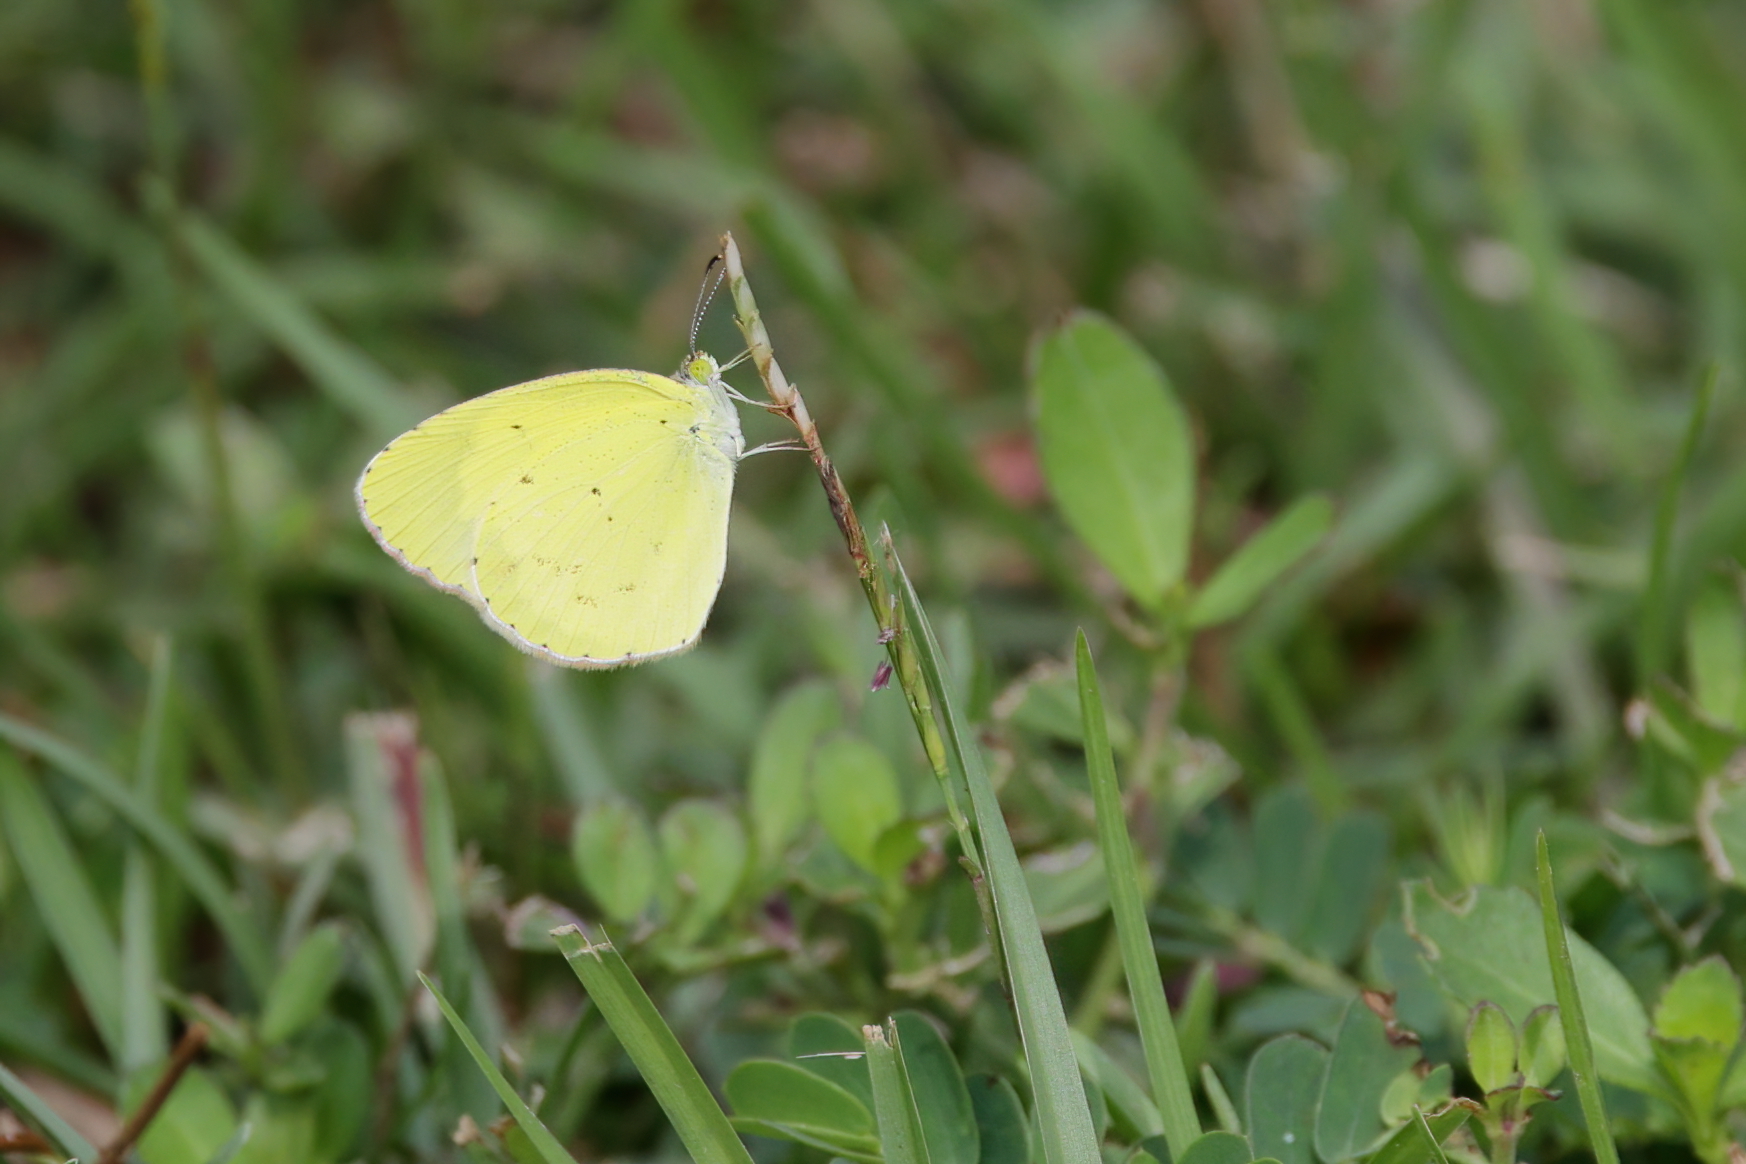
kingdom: Animalia
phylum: Arthropoda
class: Insecta
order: Lepidoptera
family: Pieridae
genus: Pyrisitia
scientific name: Pyrisitia lisa
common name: Little yellow
